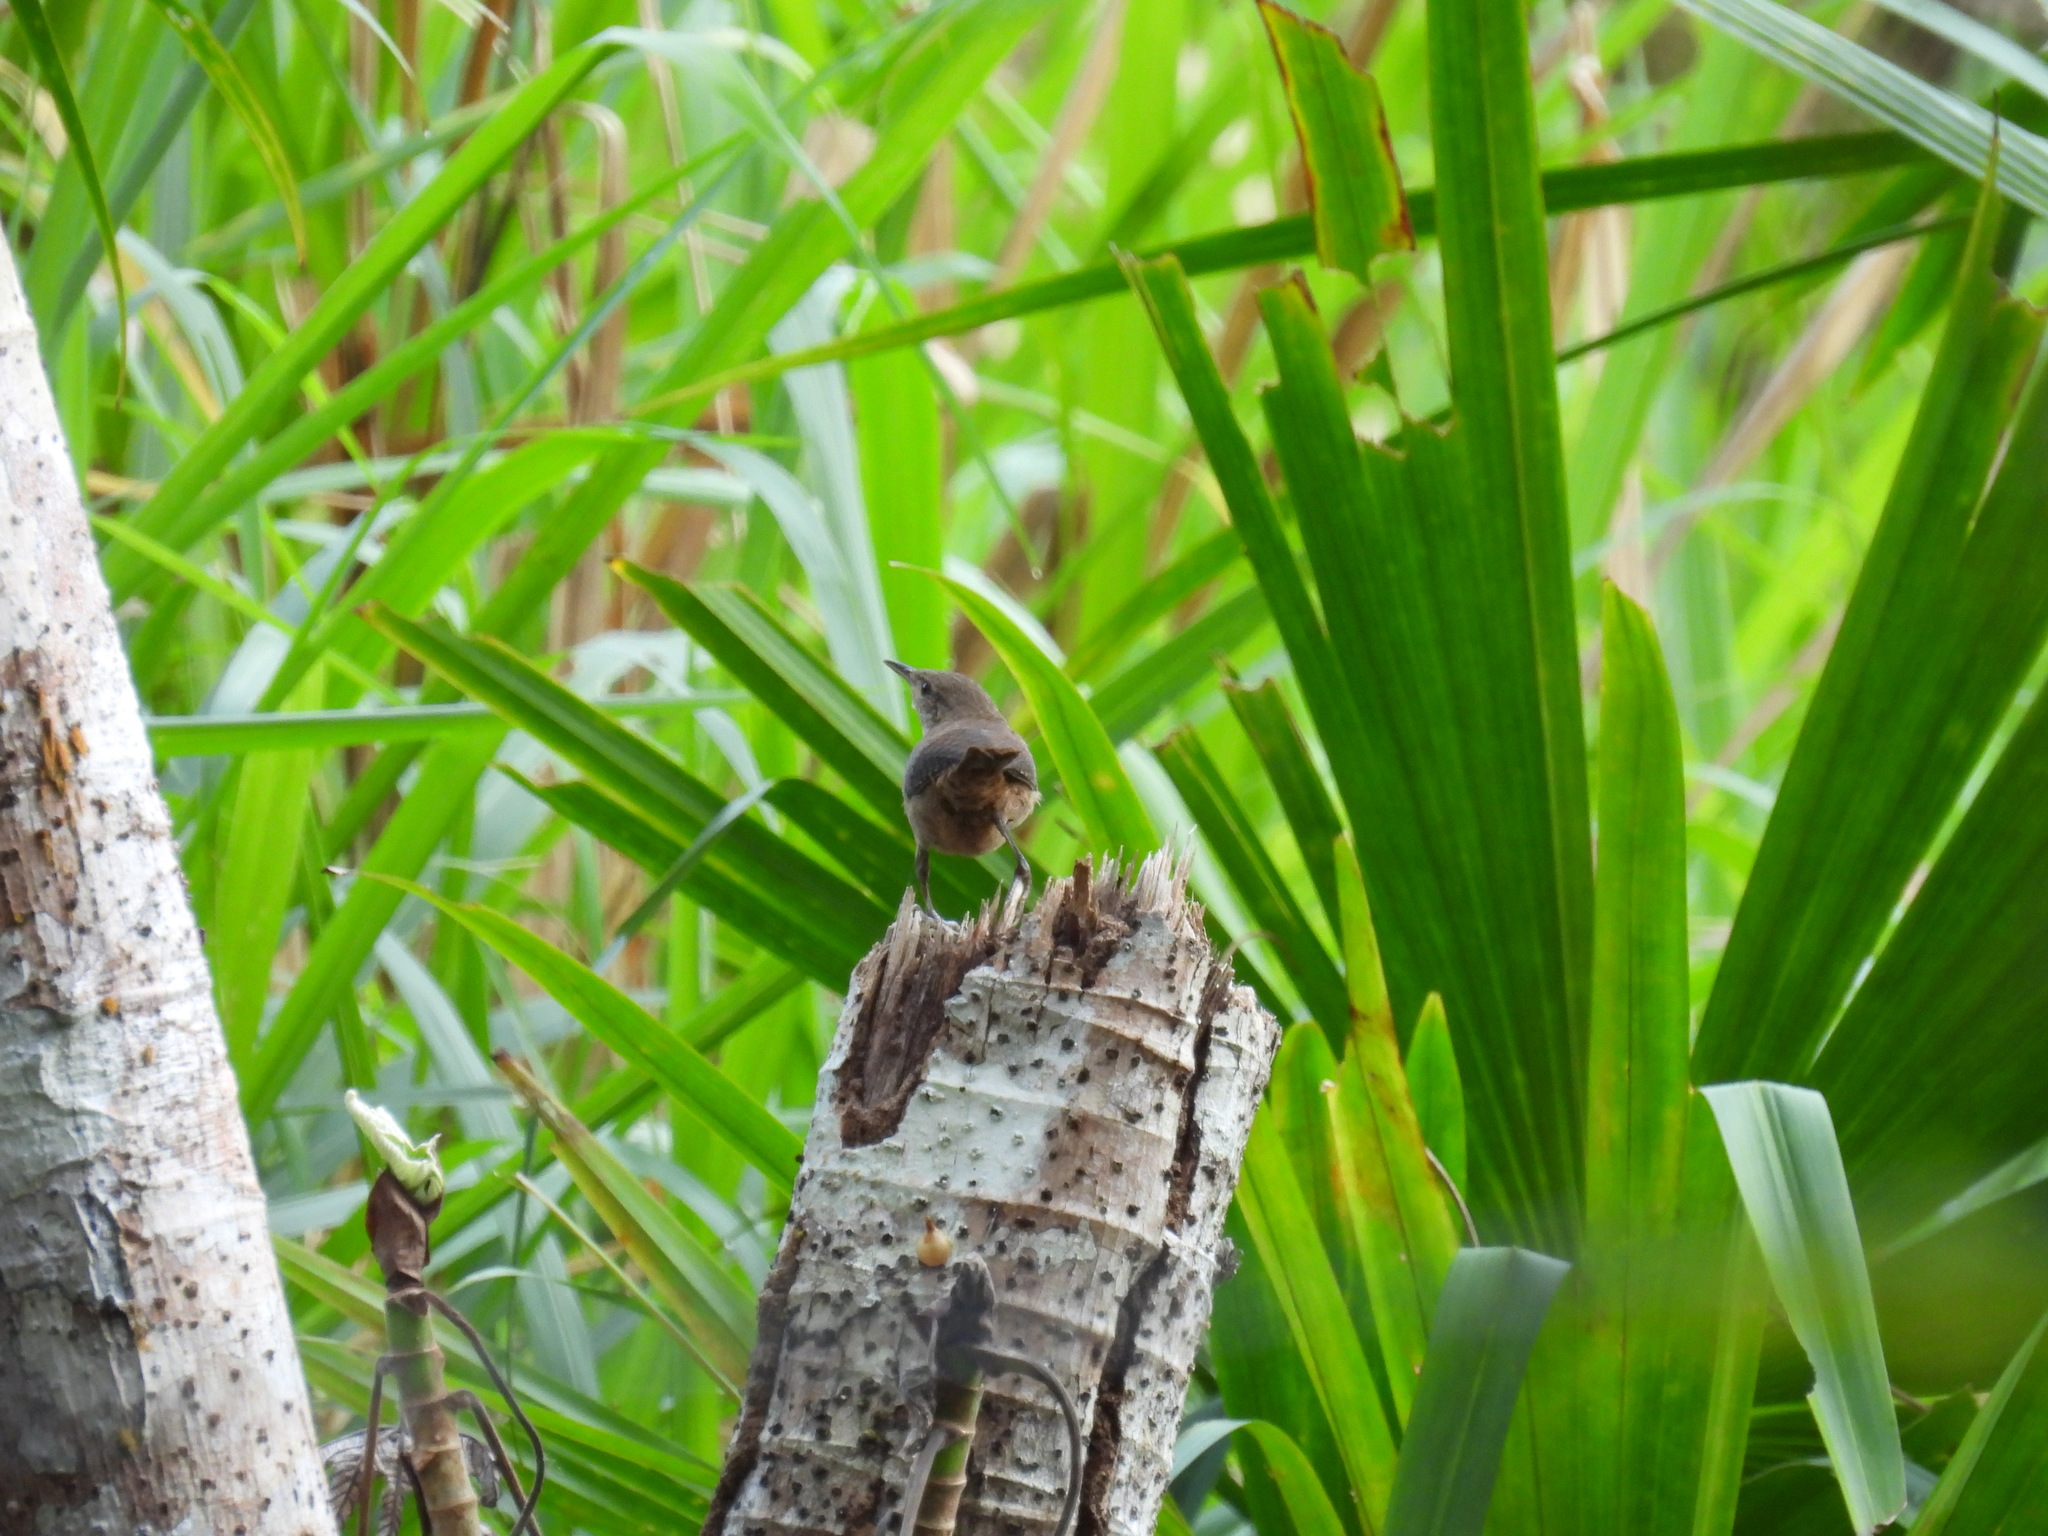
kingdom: Animalia
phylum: Chordata
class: Aves
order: Passeriformes
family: Troglodytidae
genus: Troglodytes
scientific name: Troglodytes aedon
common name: House wren
